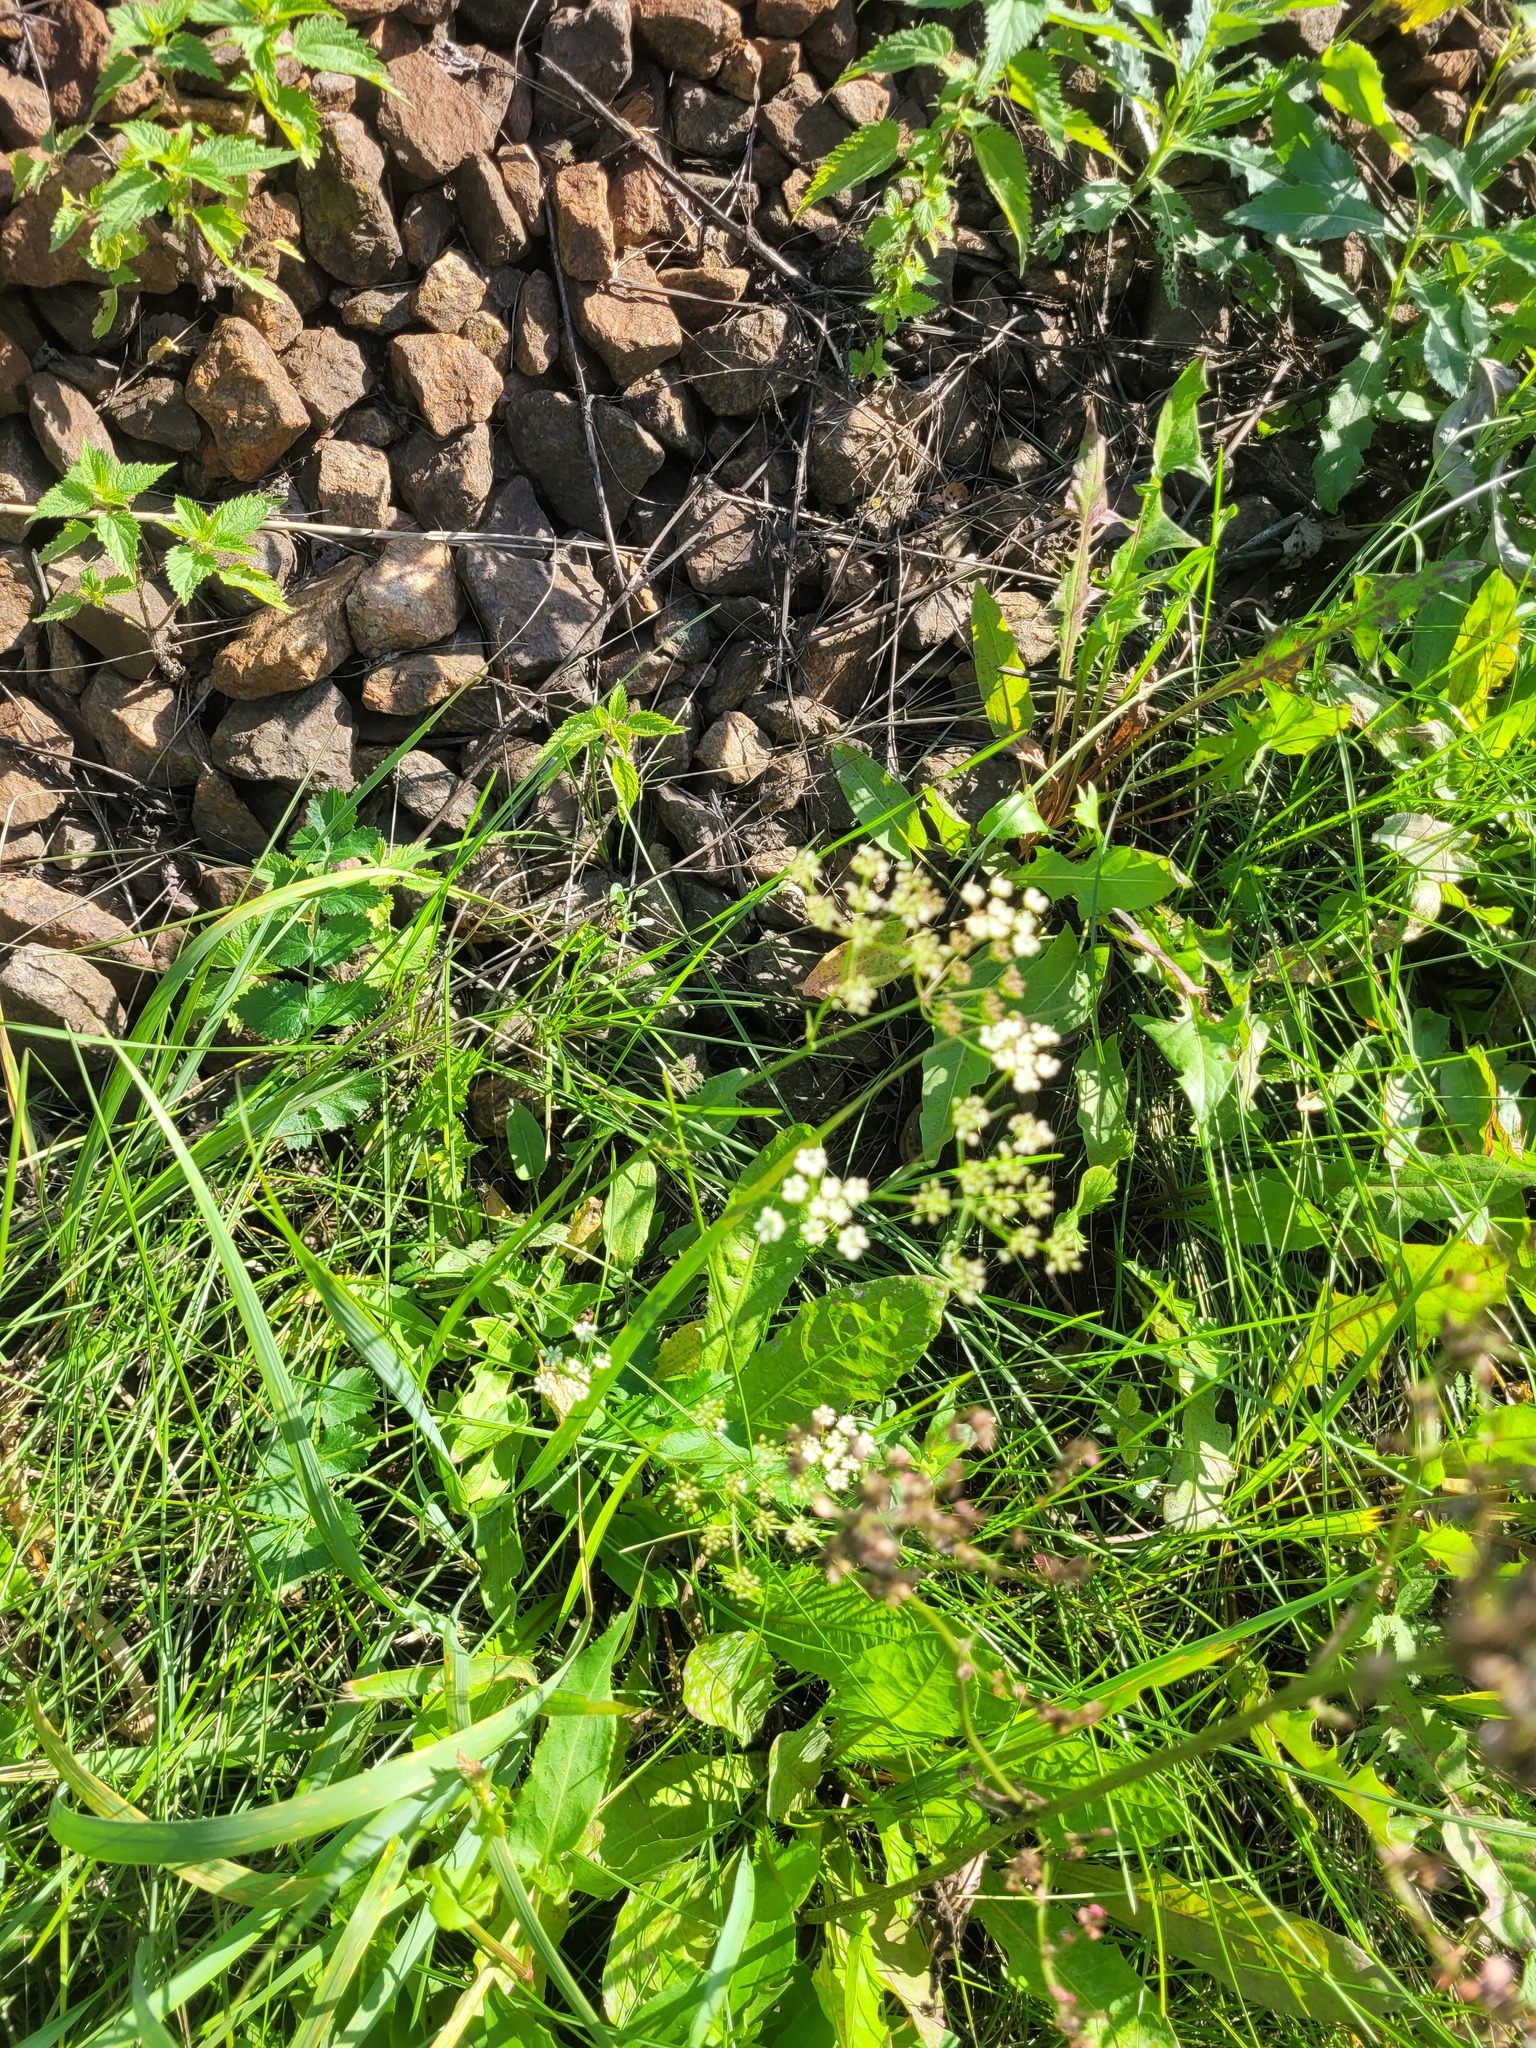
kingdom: Plantae
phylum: Tracheophyta
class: Magnoliopsida
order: Apiales
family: Apiaceae
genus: Pimpinella
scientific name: Pimpinella saxifraga
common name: Burnet-saxifrage
